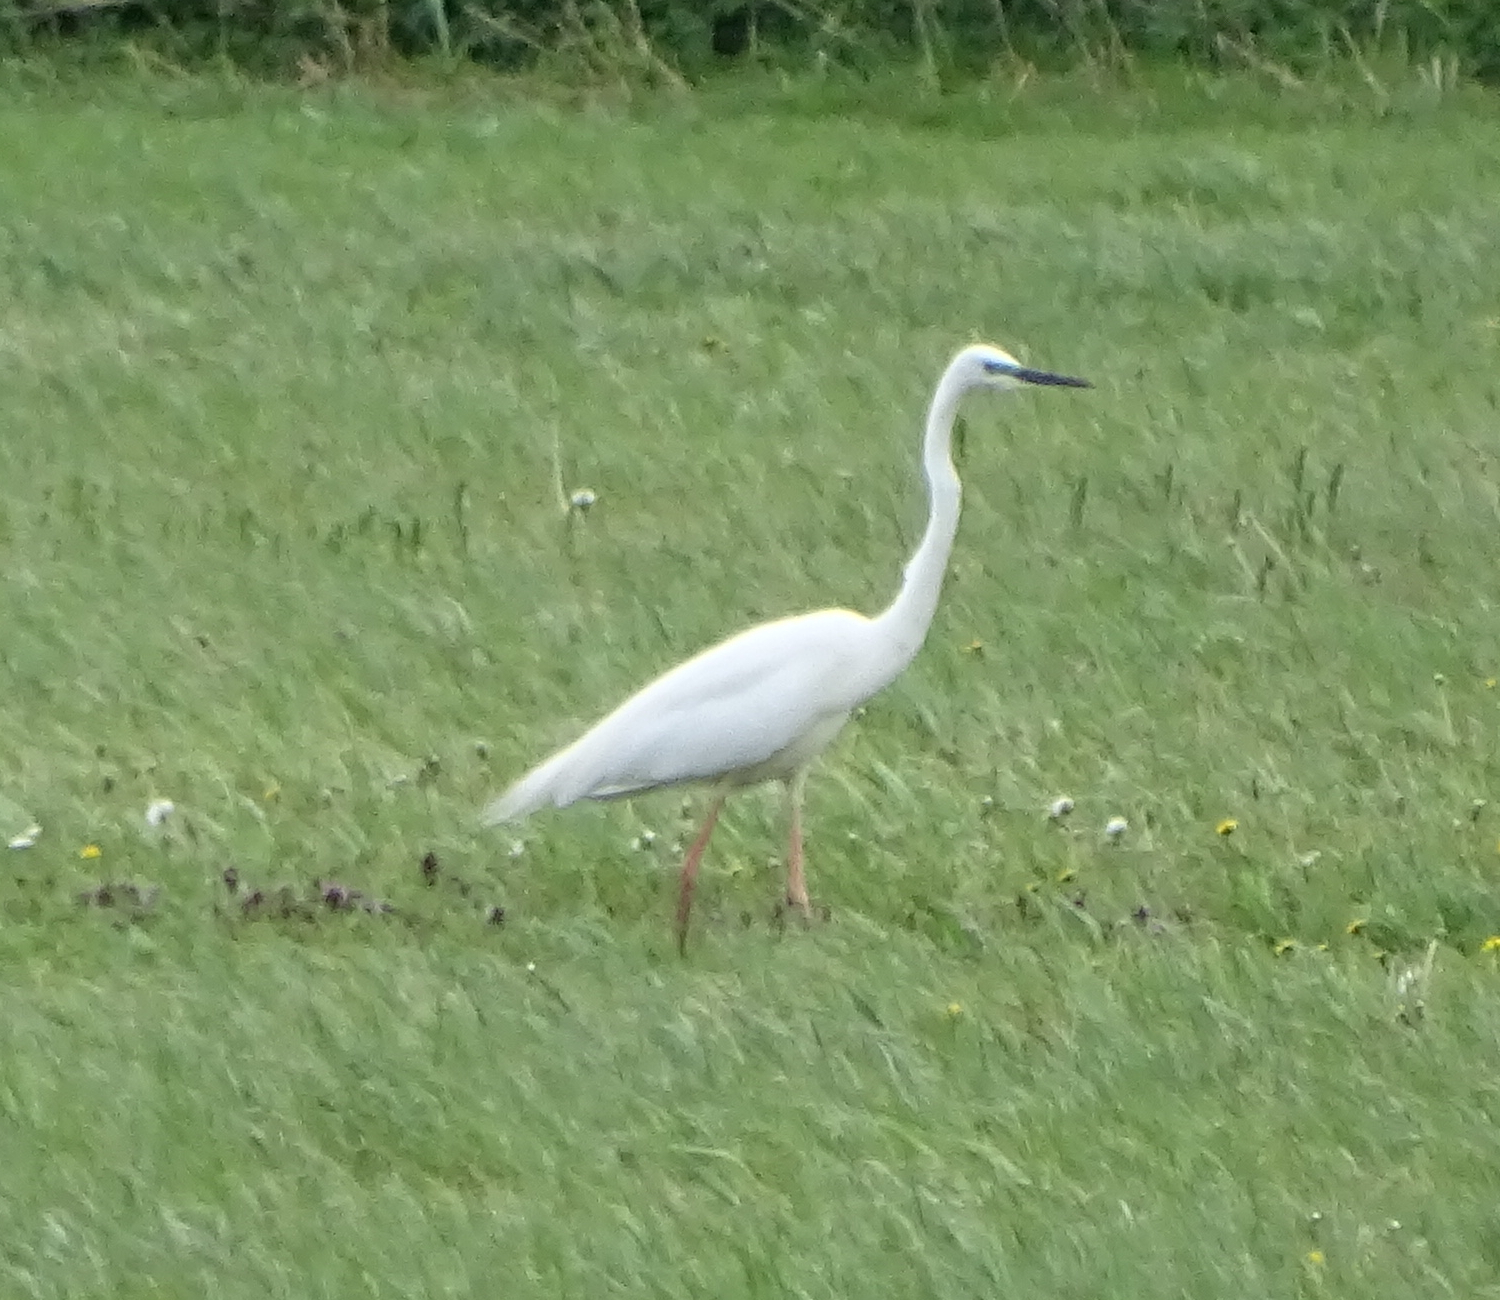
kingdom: Animalia
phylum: Chordata
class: Aves
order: Pelecaniformes
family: Ardeidae
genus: Ardea
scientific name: Ardea alba
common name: Great egret
